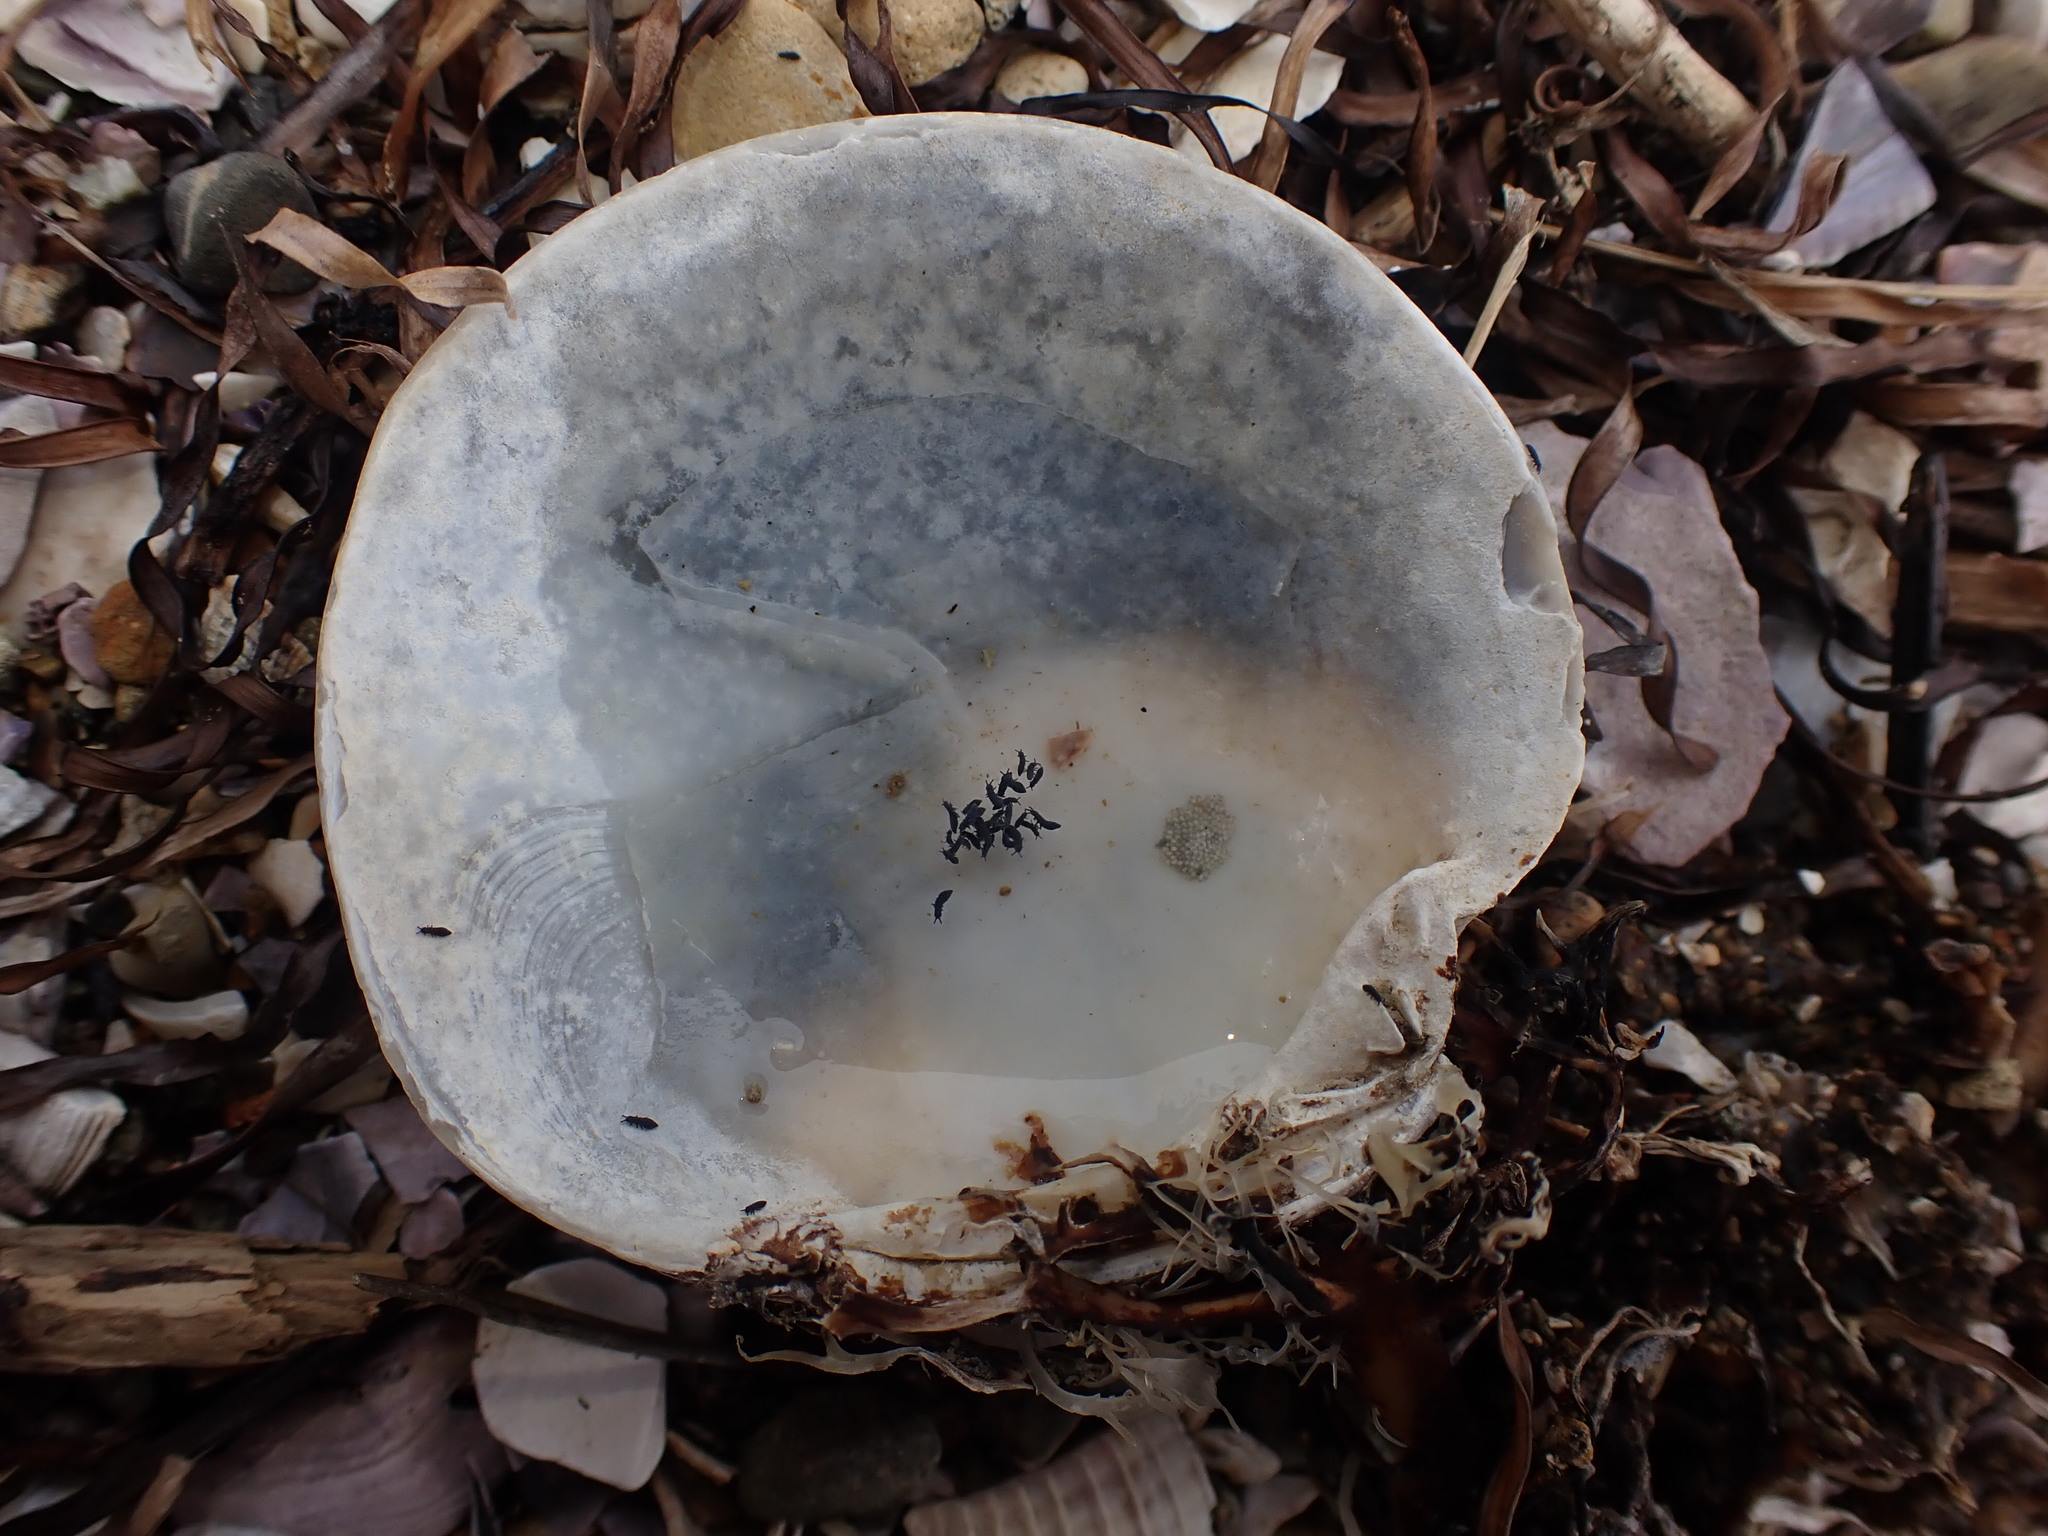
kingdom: Animalia
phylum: Mollusca
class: Bivalvia
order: Venerida
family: Veneridae
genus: Dosinia
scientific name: Dosinia subrosea
